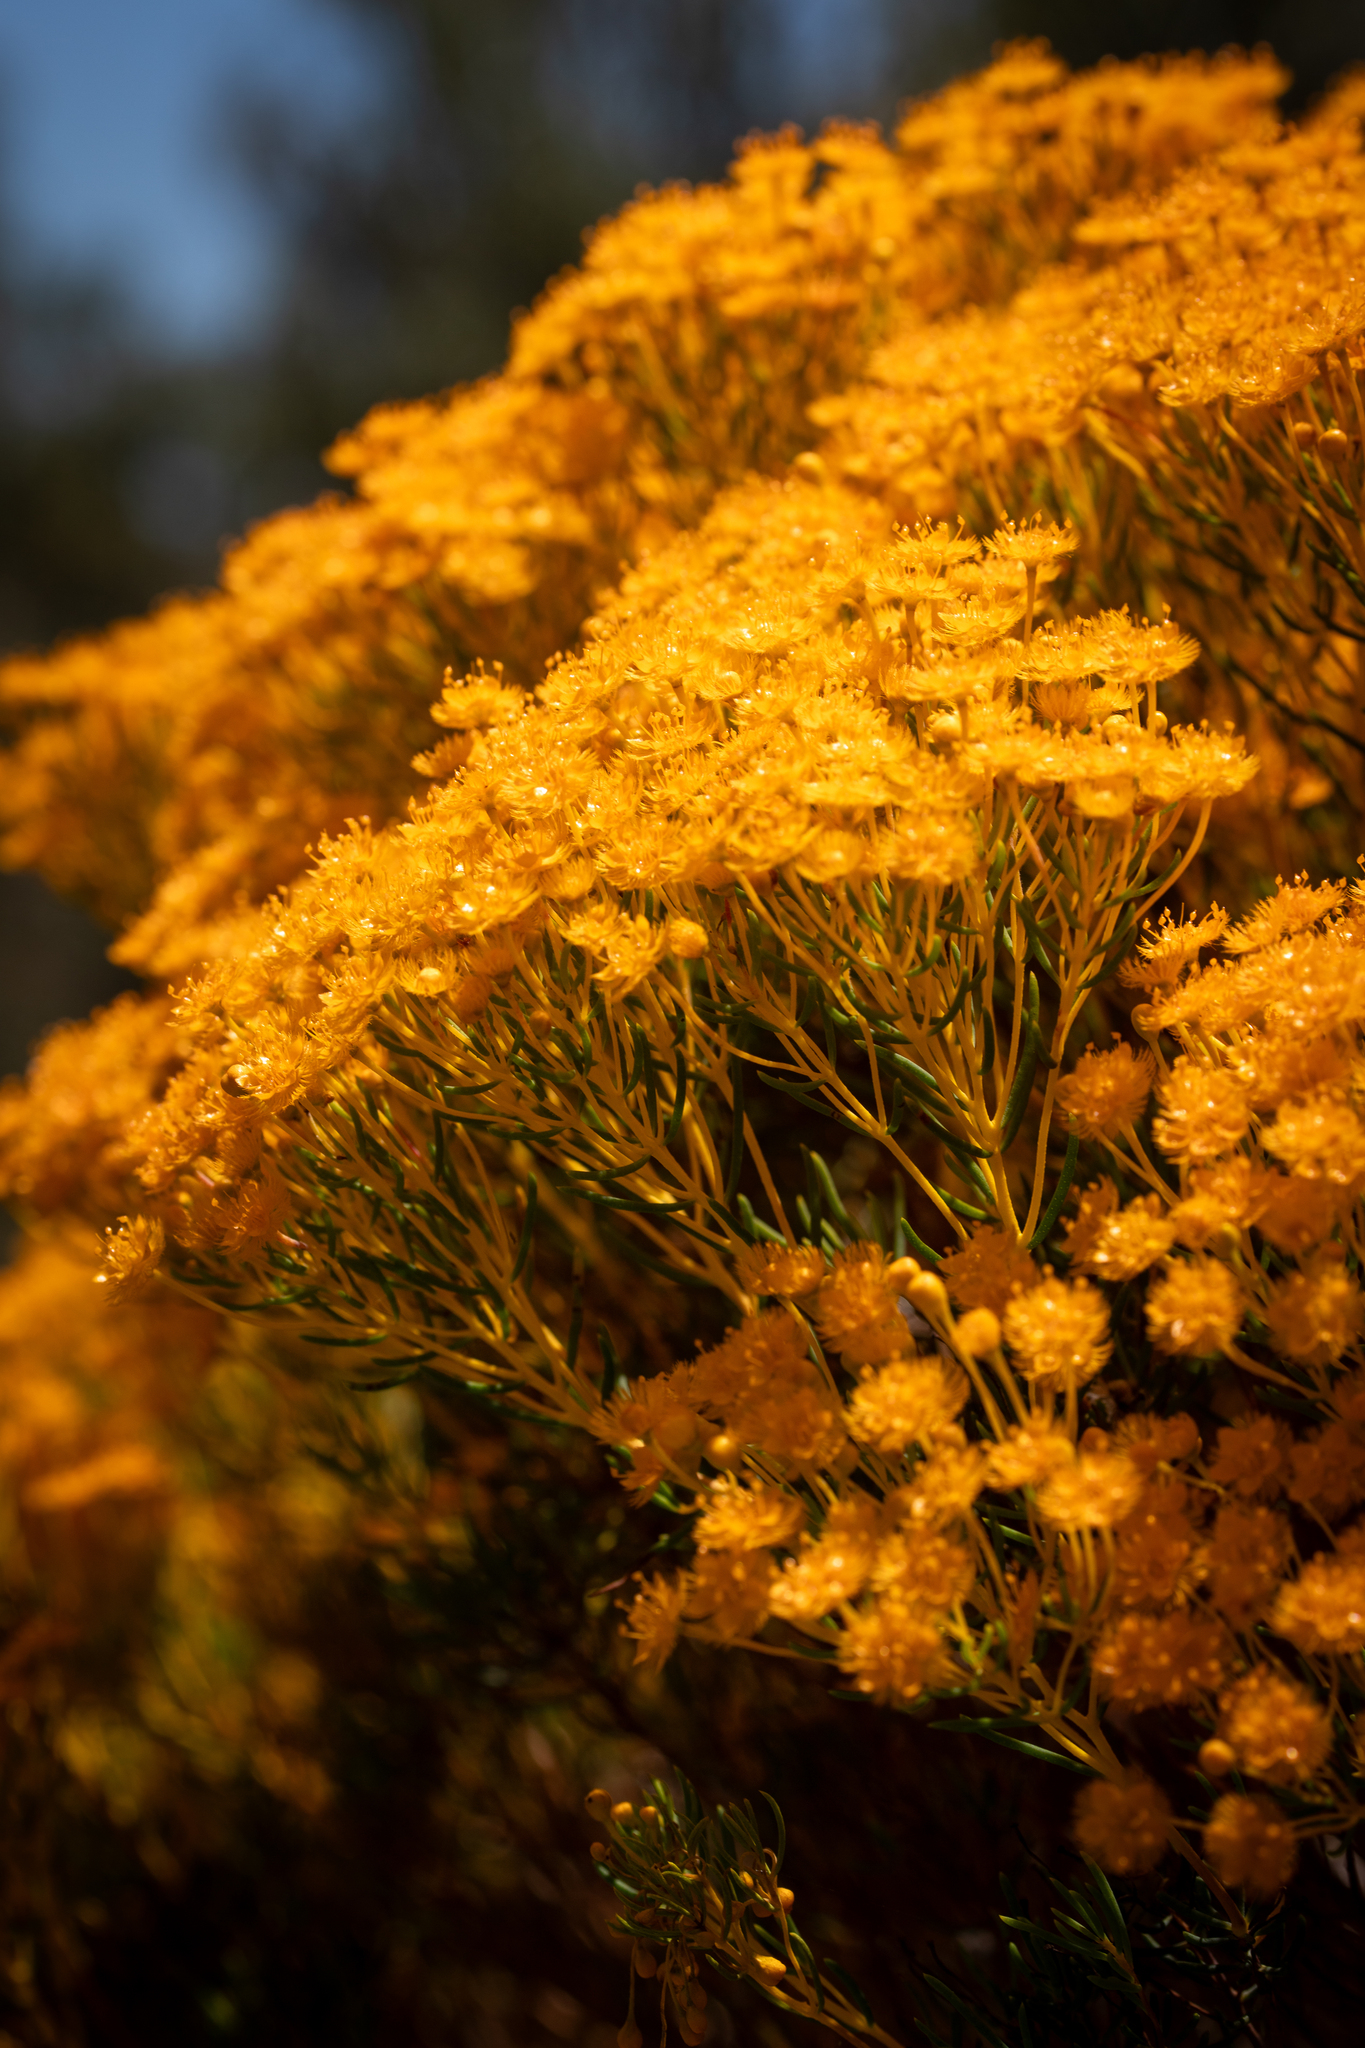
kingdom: Plantae
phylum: Tracheophyta
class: Magnoliopsida
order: Myrtales
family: Myrtaceae
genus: Verticordia
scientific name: Verticordia nitens
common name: Christmas morrison
